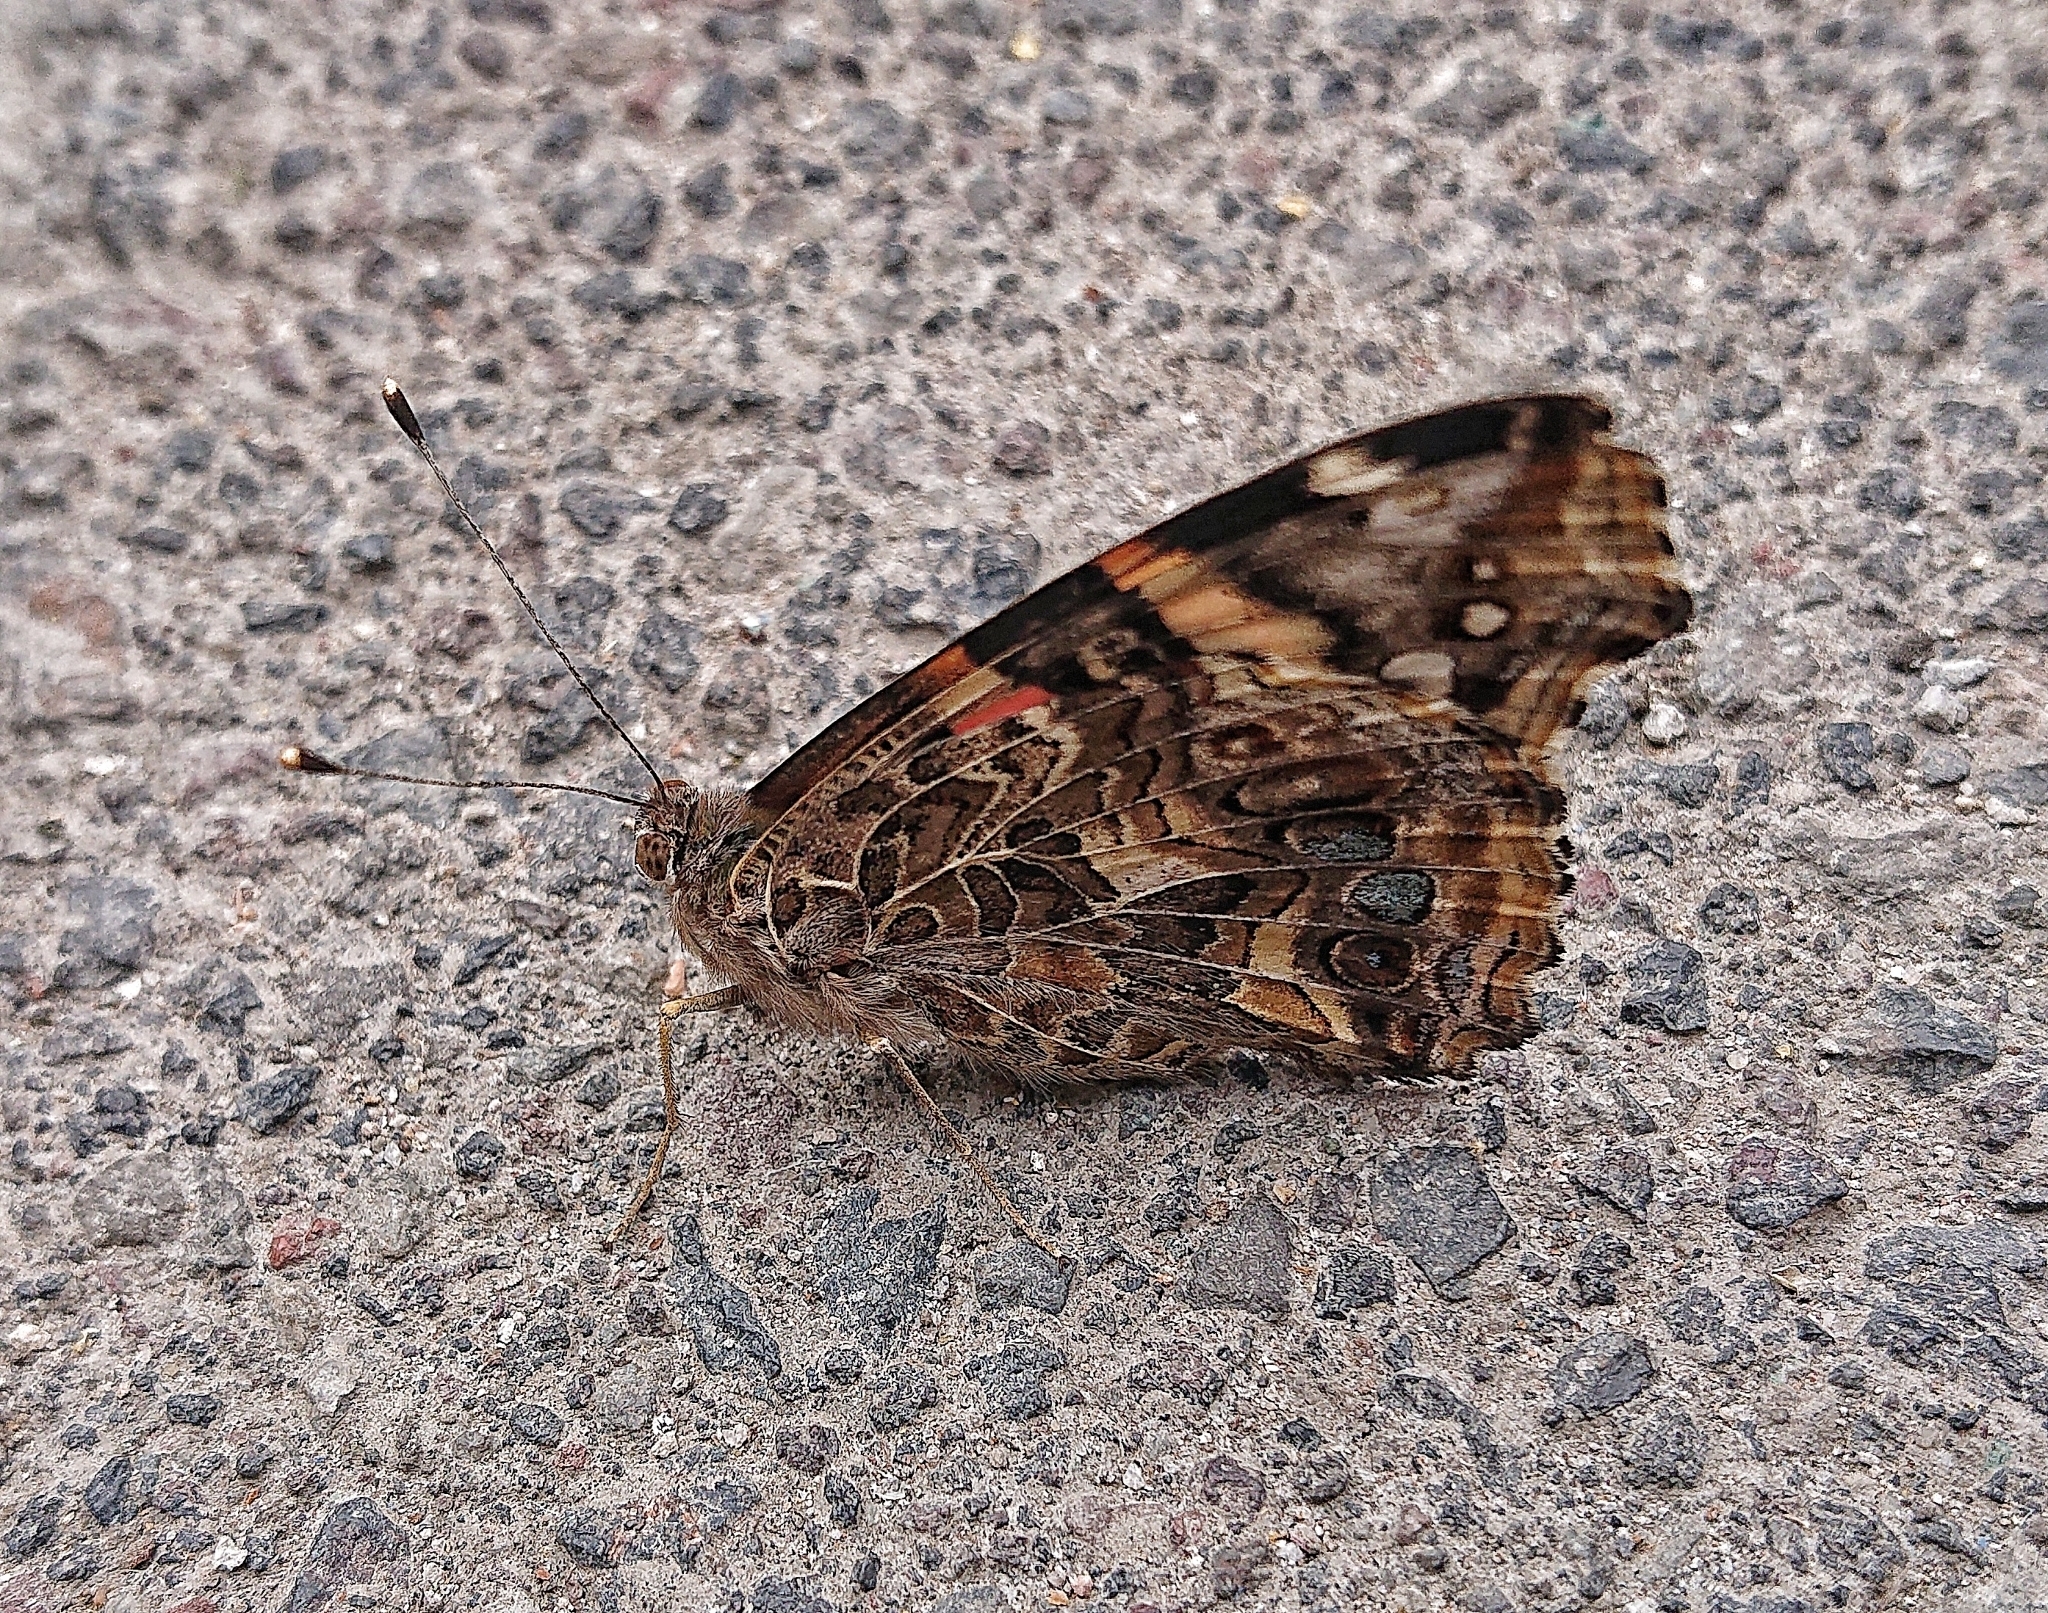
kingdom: Animalia
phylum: Arthropoda
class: Insecta
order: Lepidoptera
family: Nymphalidae
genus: Vanessa
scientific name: Vanessa carye
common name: Subtropical lady
